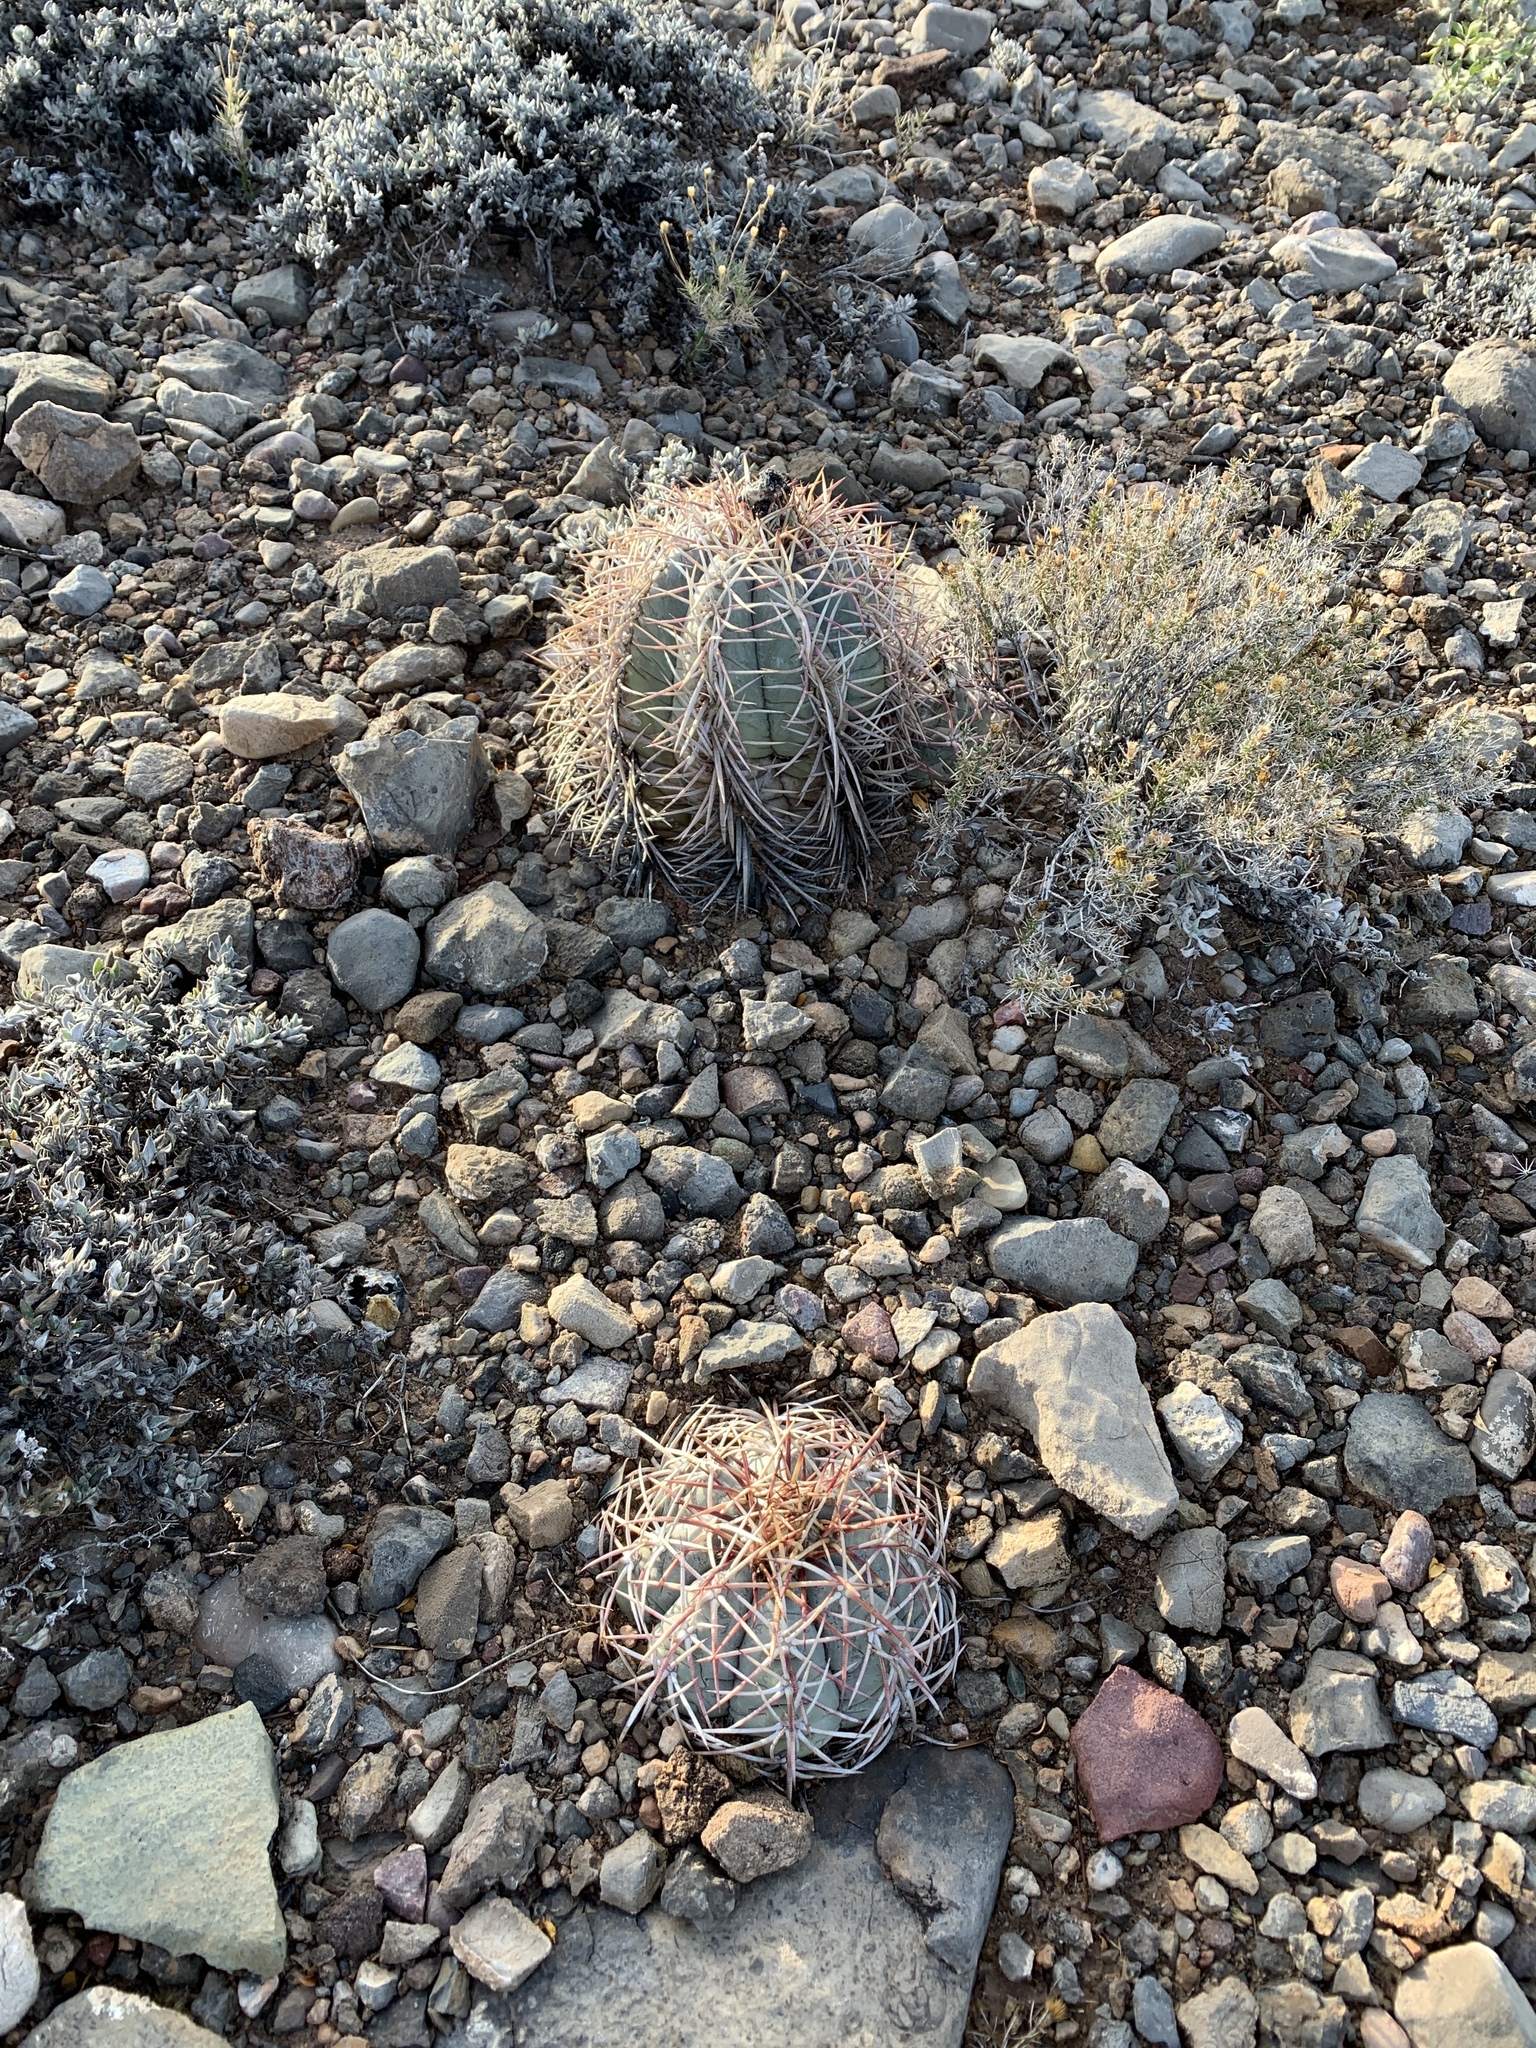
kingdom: Plantae
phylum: Tracheophyta
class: Magnoliopsida
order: Caryophyllales
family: Cactaceae
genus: Echinocactus
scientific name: Echinocactus horizonthalonius
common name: Devilshead
